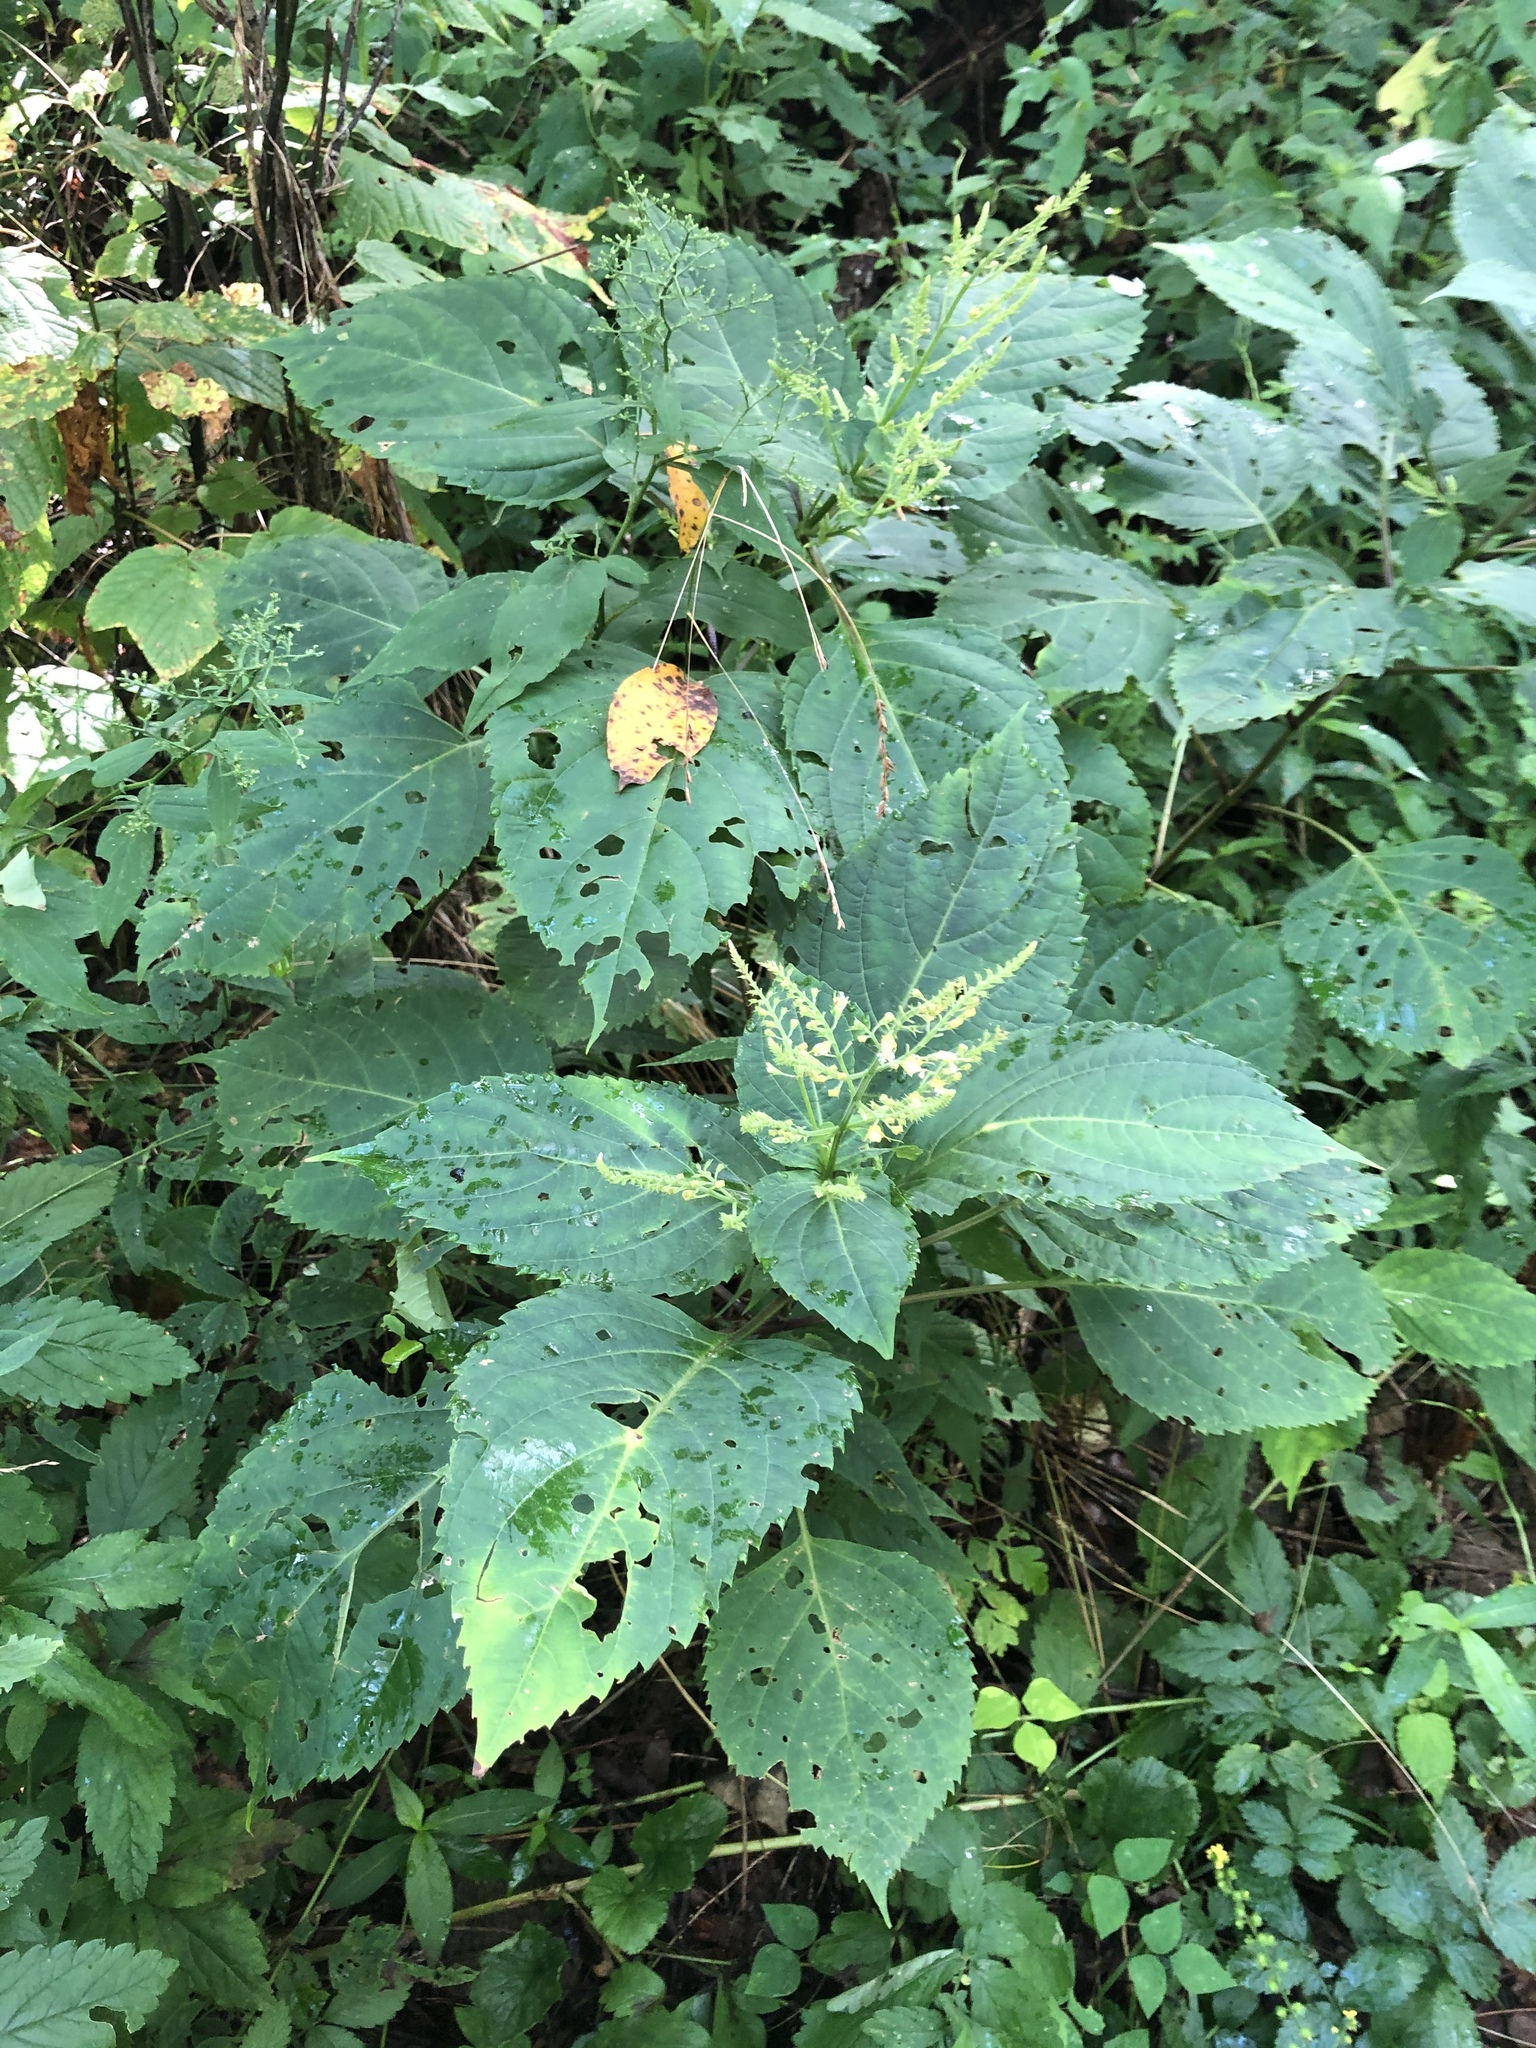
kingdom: Plantae
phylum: Tracheophyta
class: Magnoliopsida
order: Lamiales
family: Lamiaceae
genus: Collinsonia
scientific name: Collinsonia canadensis
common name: Northern horsebalm
